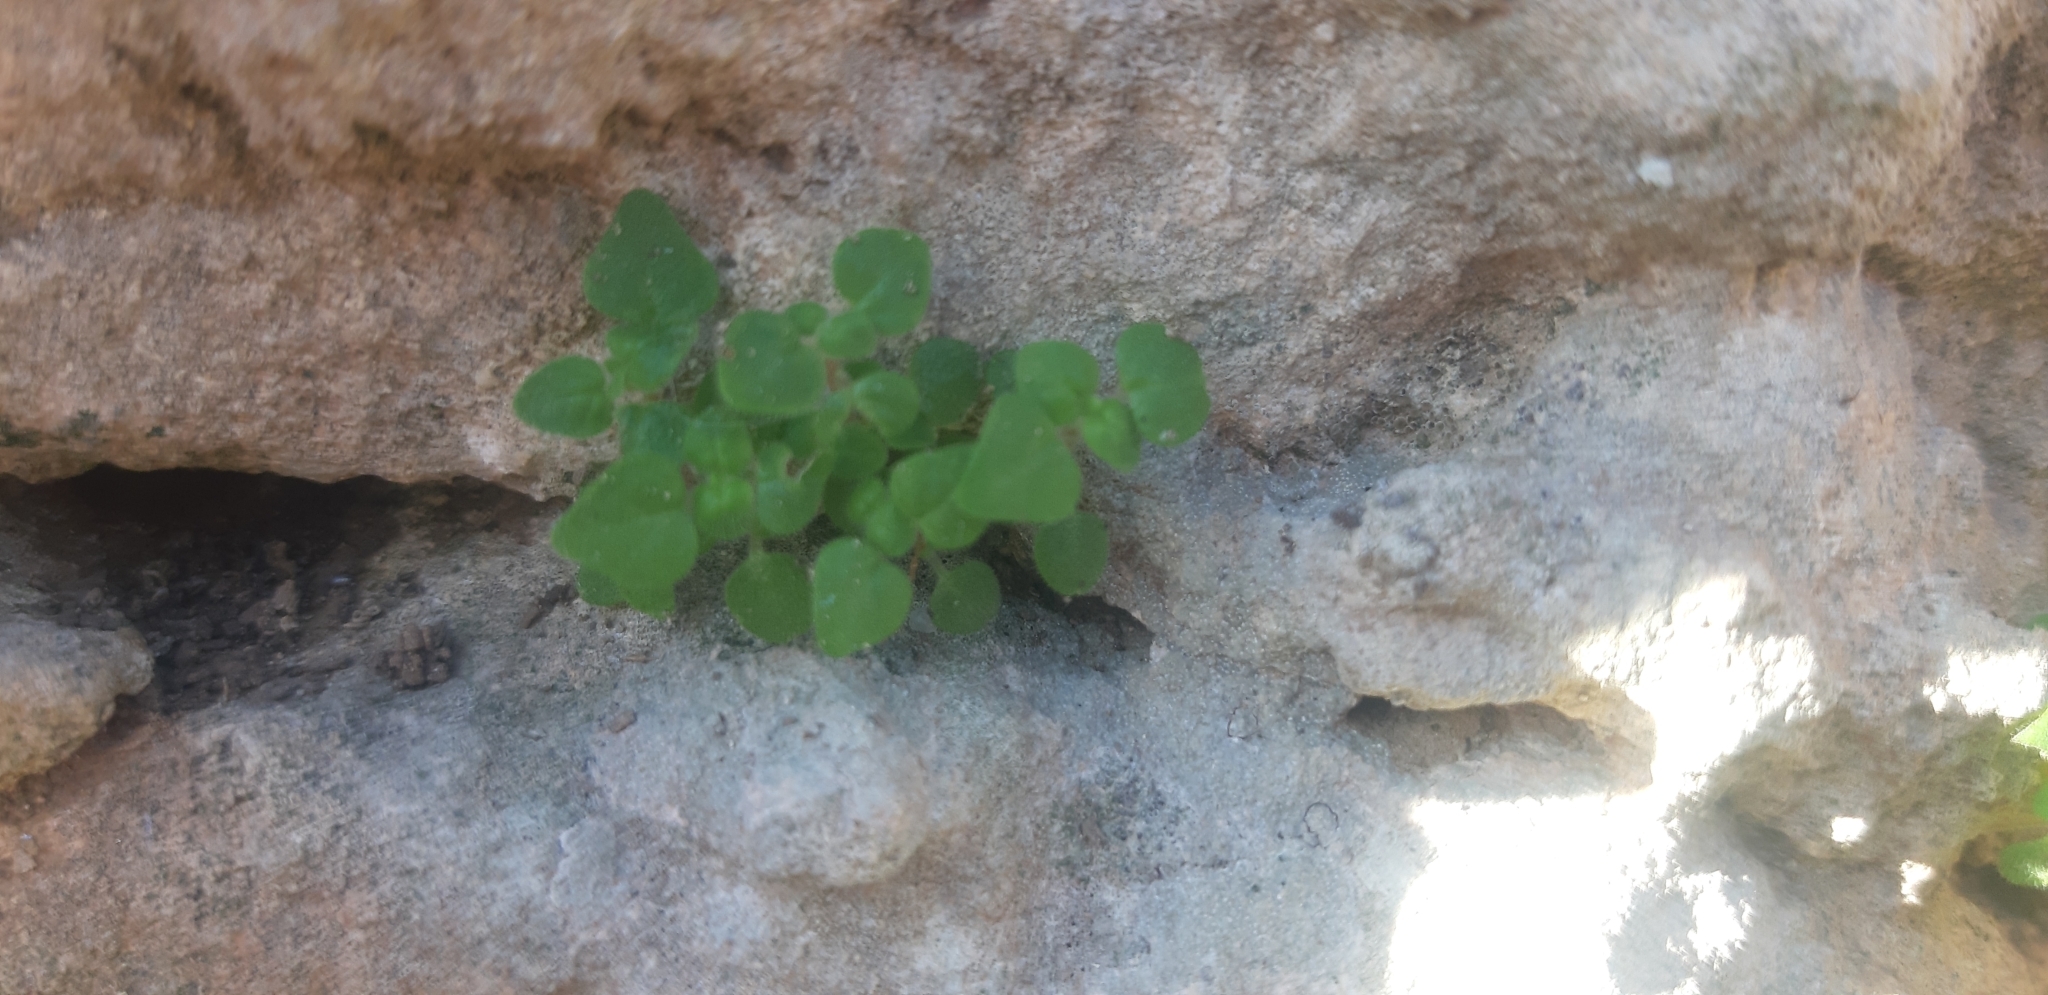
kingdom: Plantae
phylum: Tracheophyta
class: Magnoliopsida
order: Rosales
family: Urticaceae
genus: Parietaria
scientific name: Parietaria lusitanica
